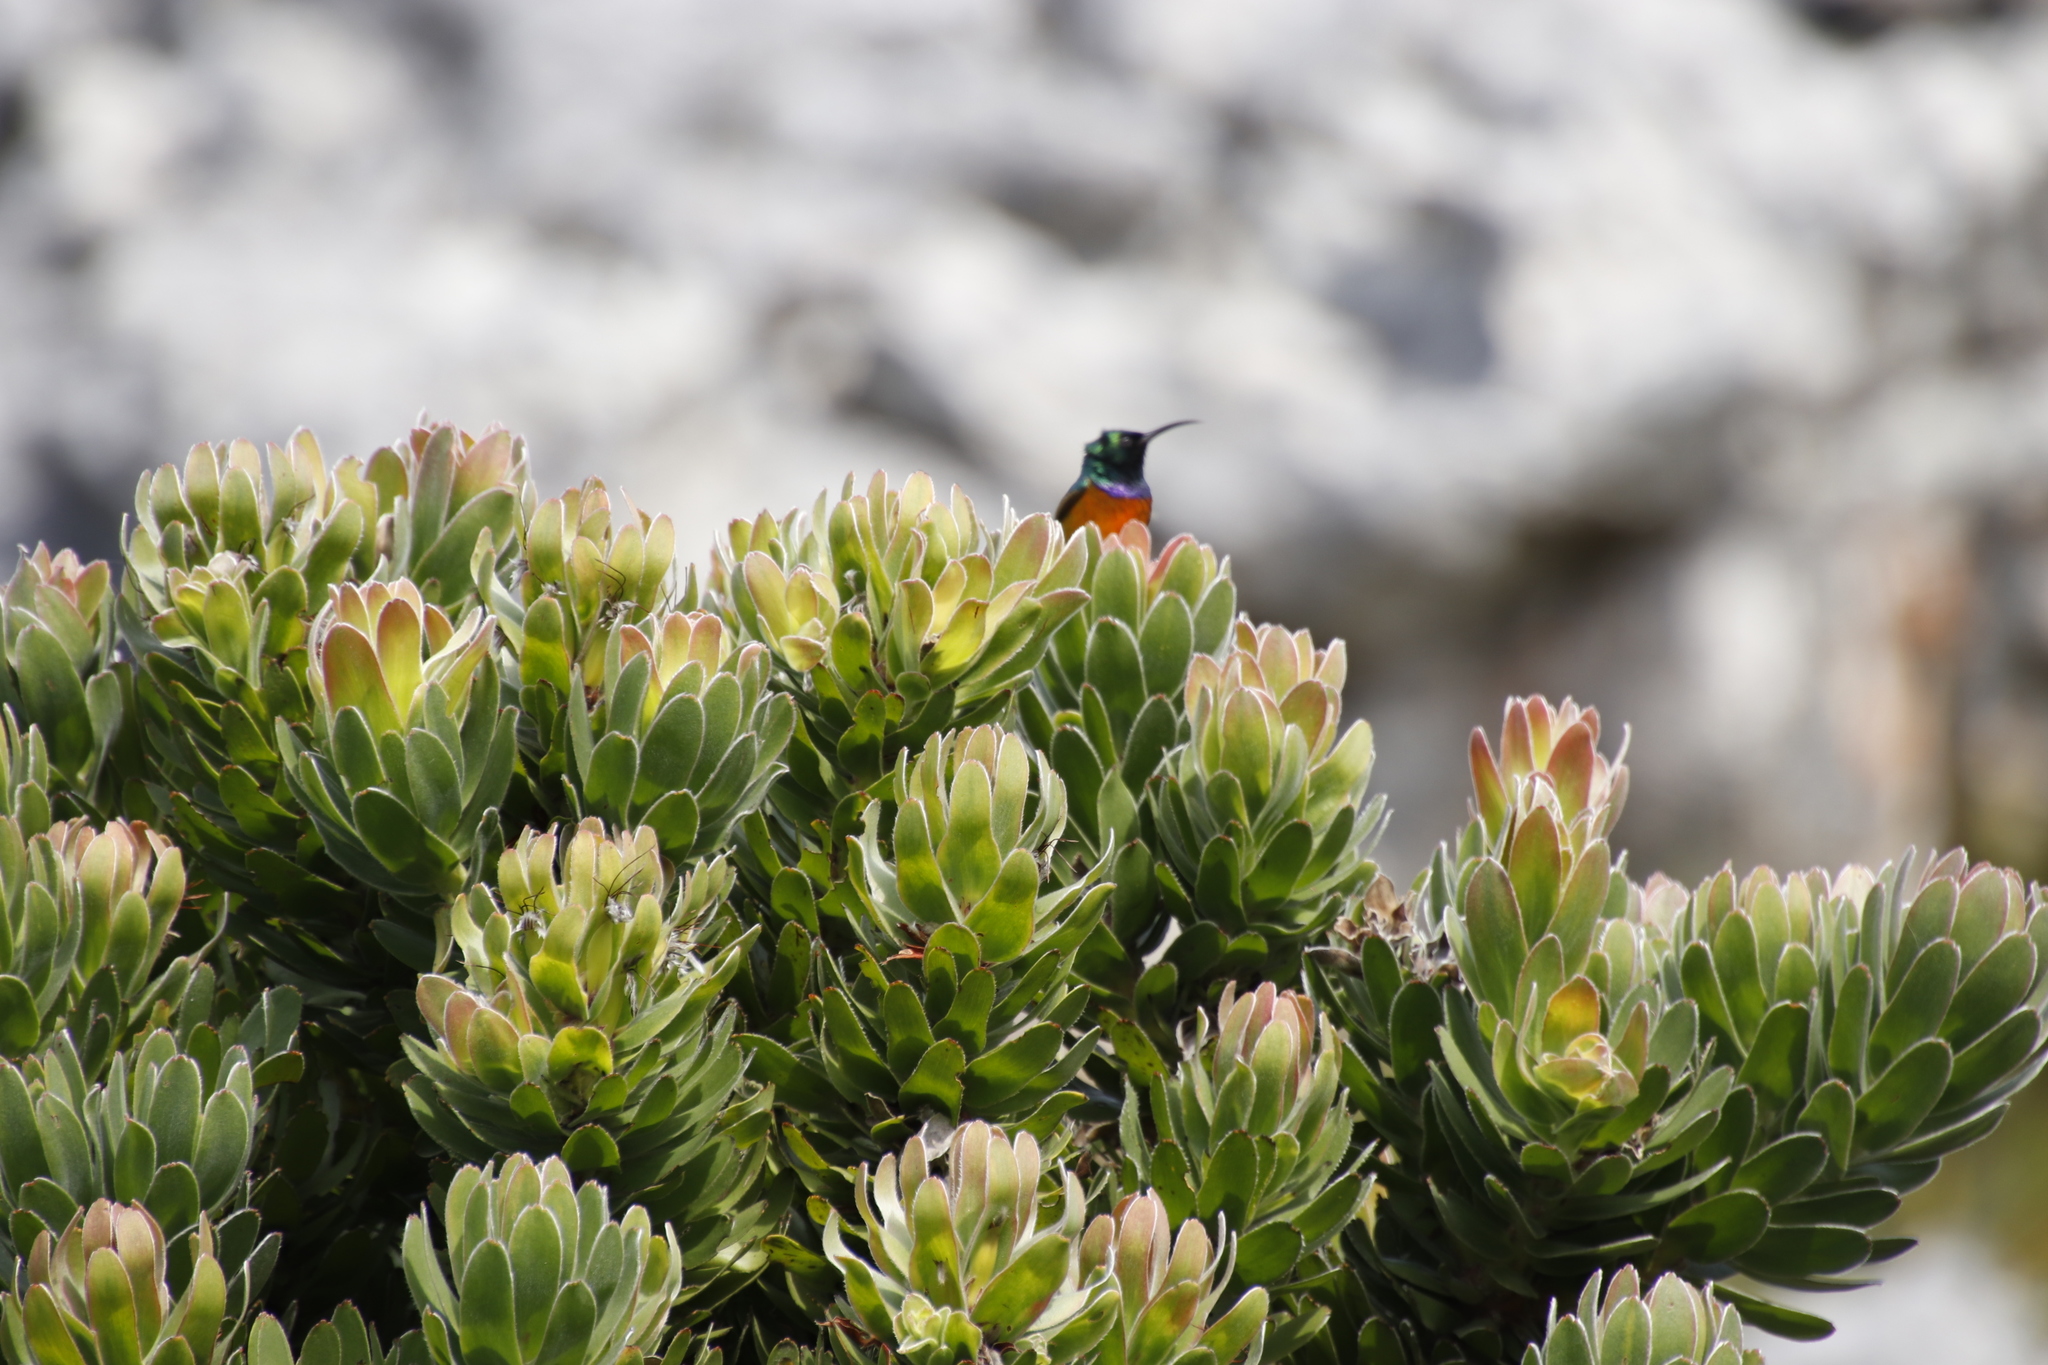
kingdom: Animalia
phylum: Chordata
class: Aves
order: Passeriformes
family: Nectariniidae
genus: Anthobaphes
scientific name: Anthobaphes violacea
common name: Orange-breasted sunbird
